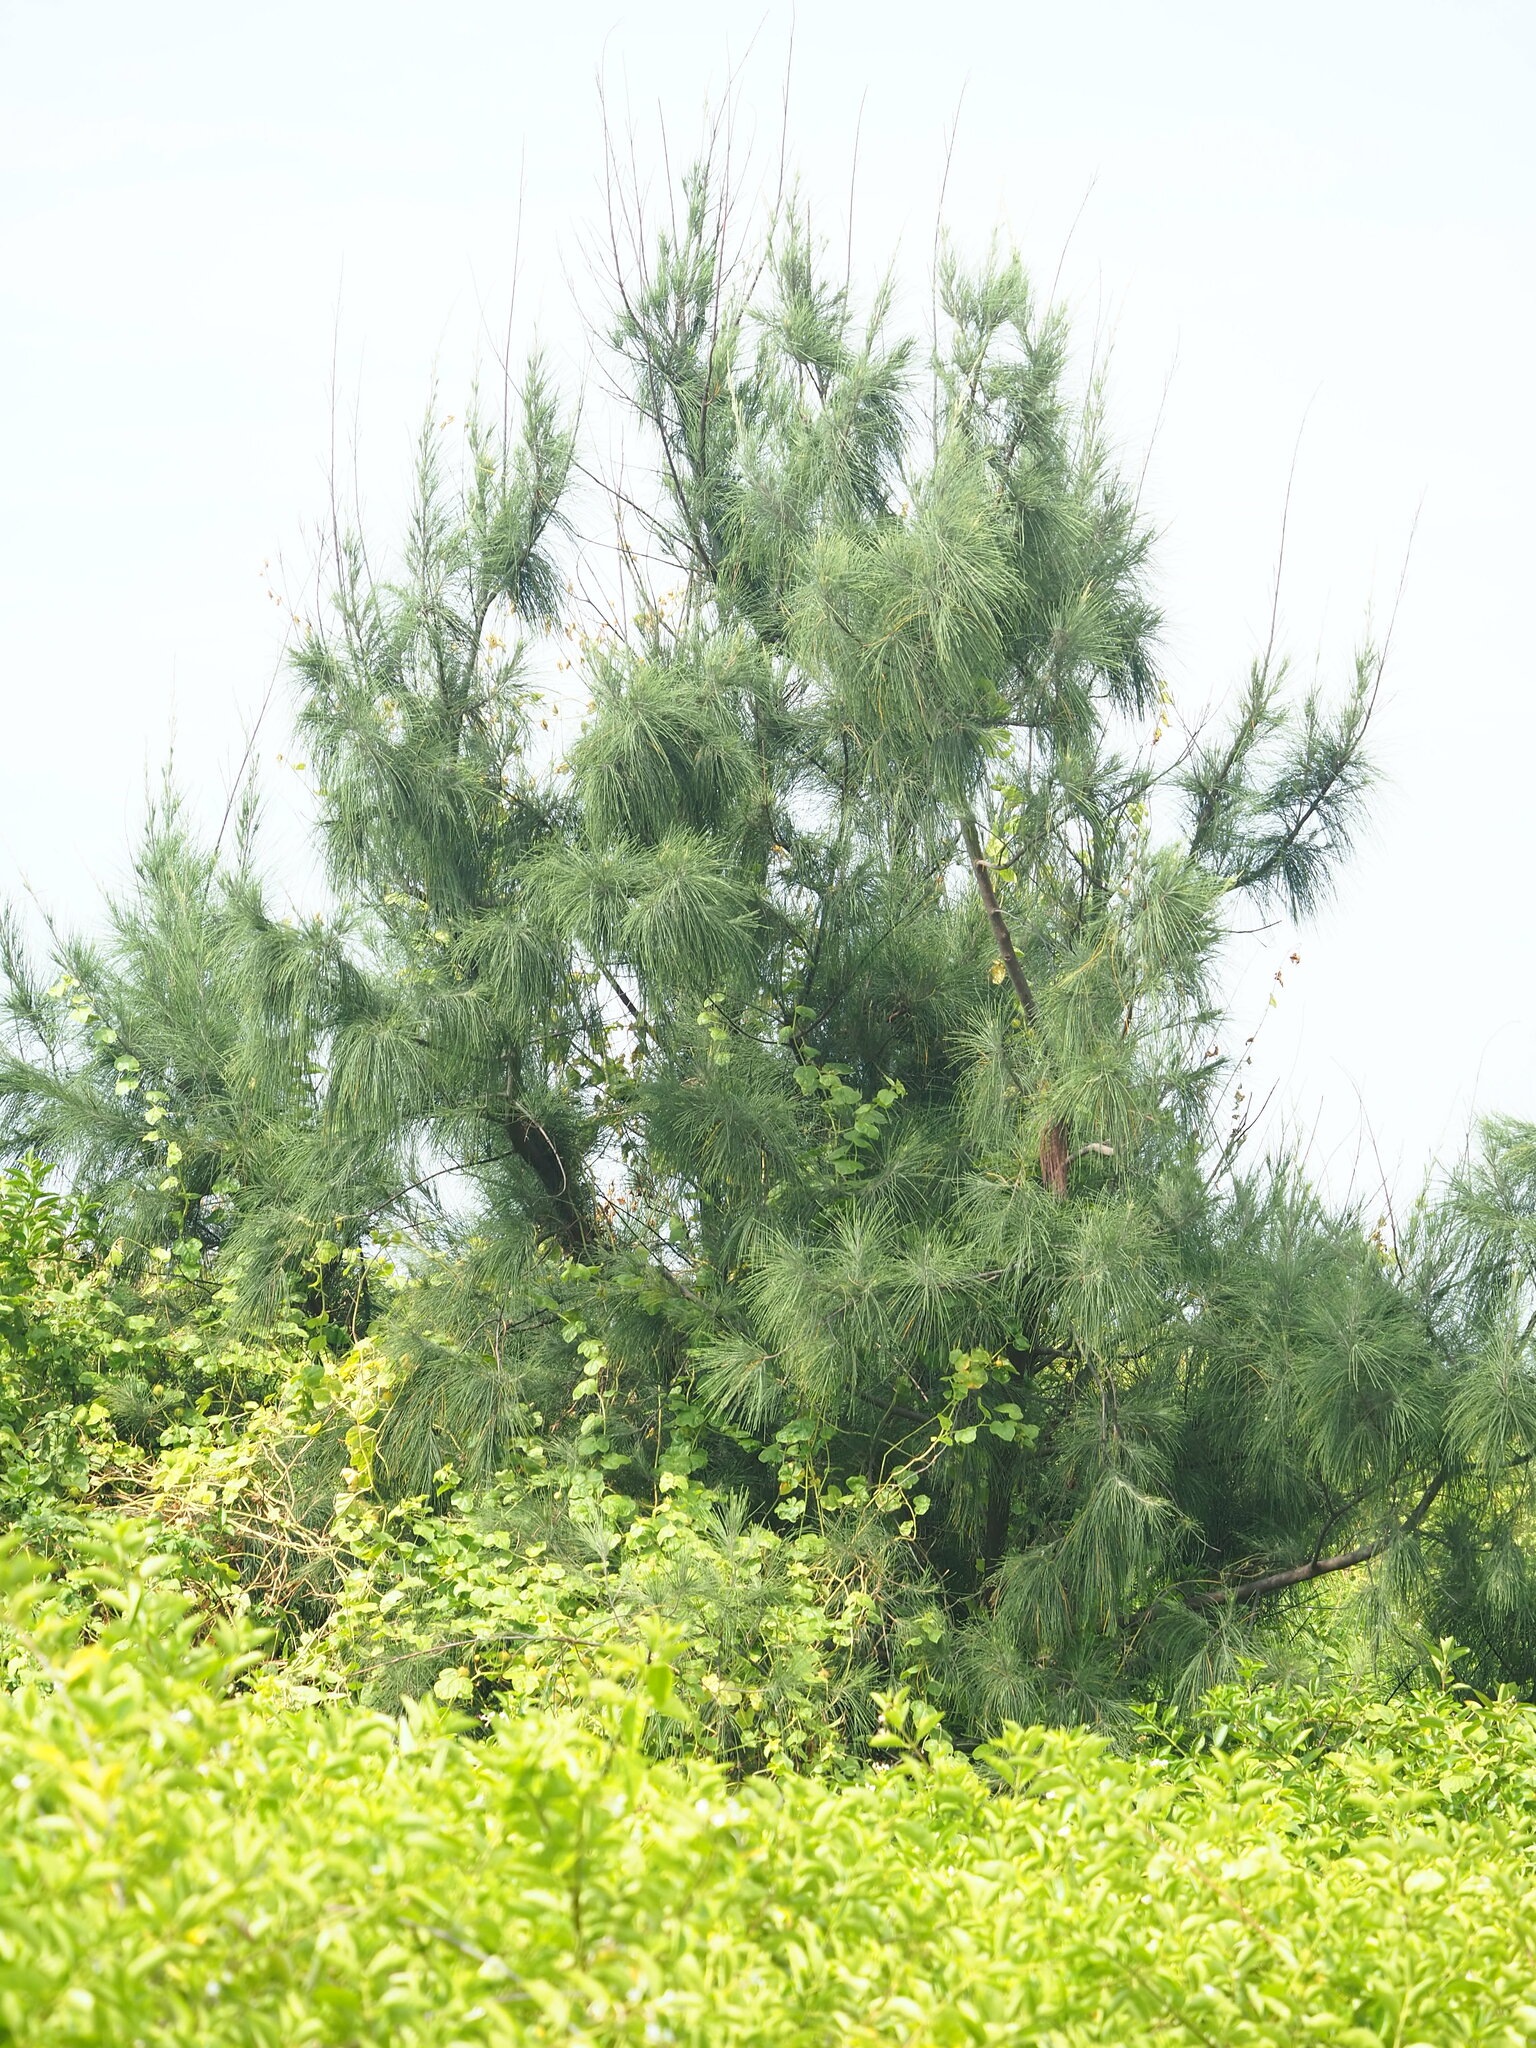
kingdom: Plantae
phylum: Tracheophyta
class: Magnoliopsida
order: Fagales
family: Casuarinaceae
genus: Casuarina
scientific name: Casuarina equisetifolia
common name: Beach sheoak
